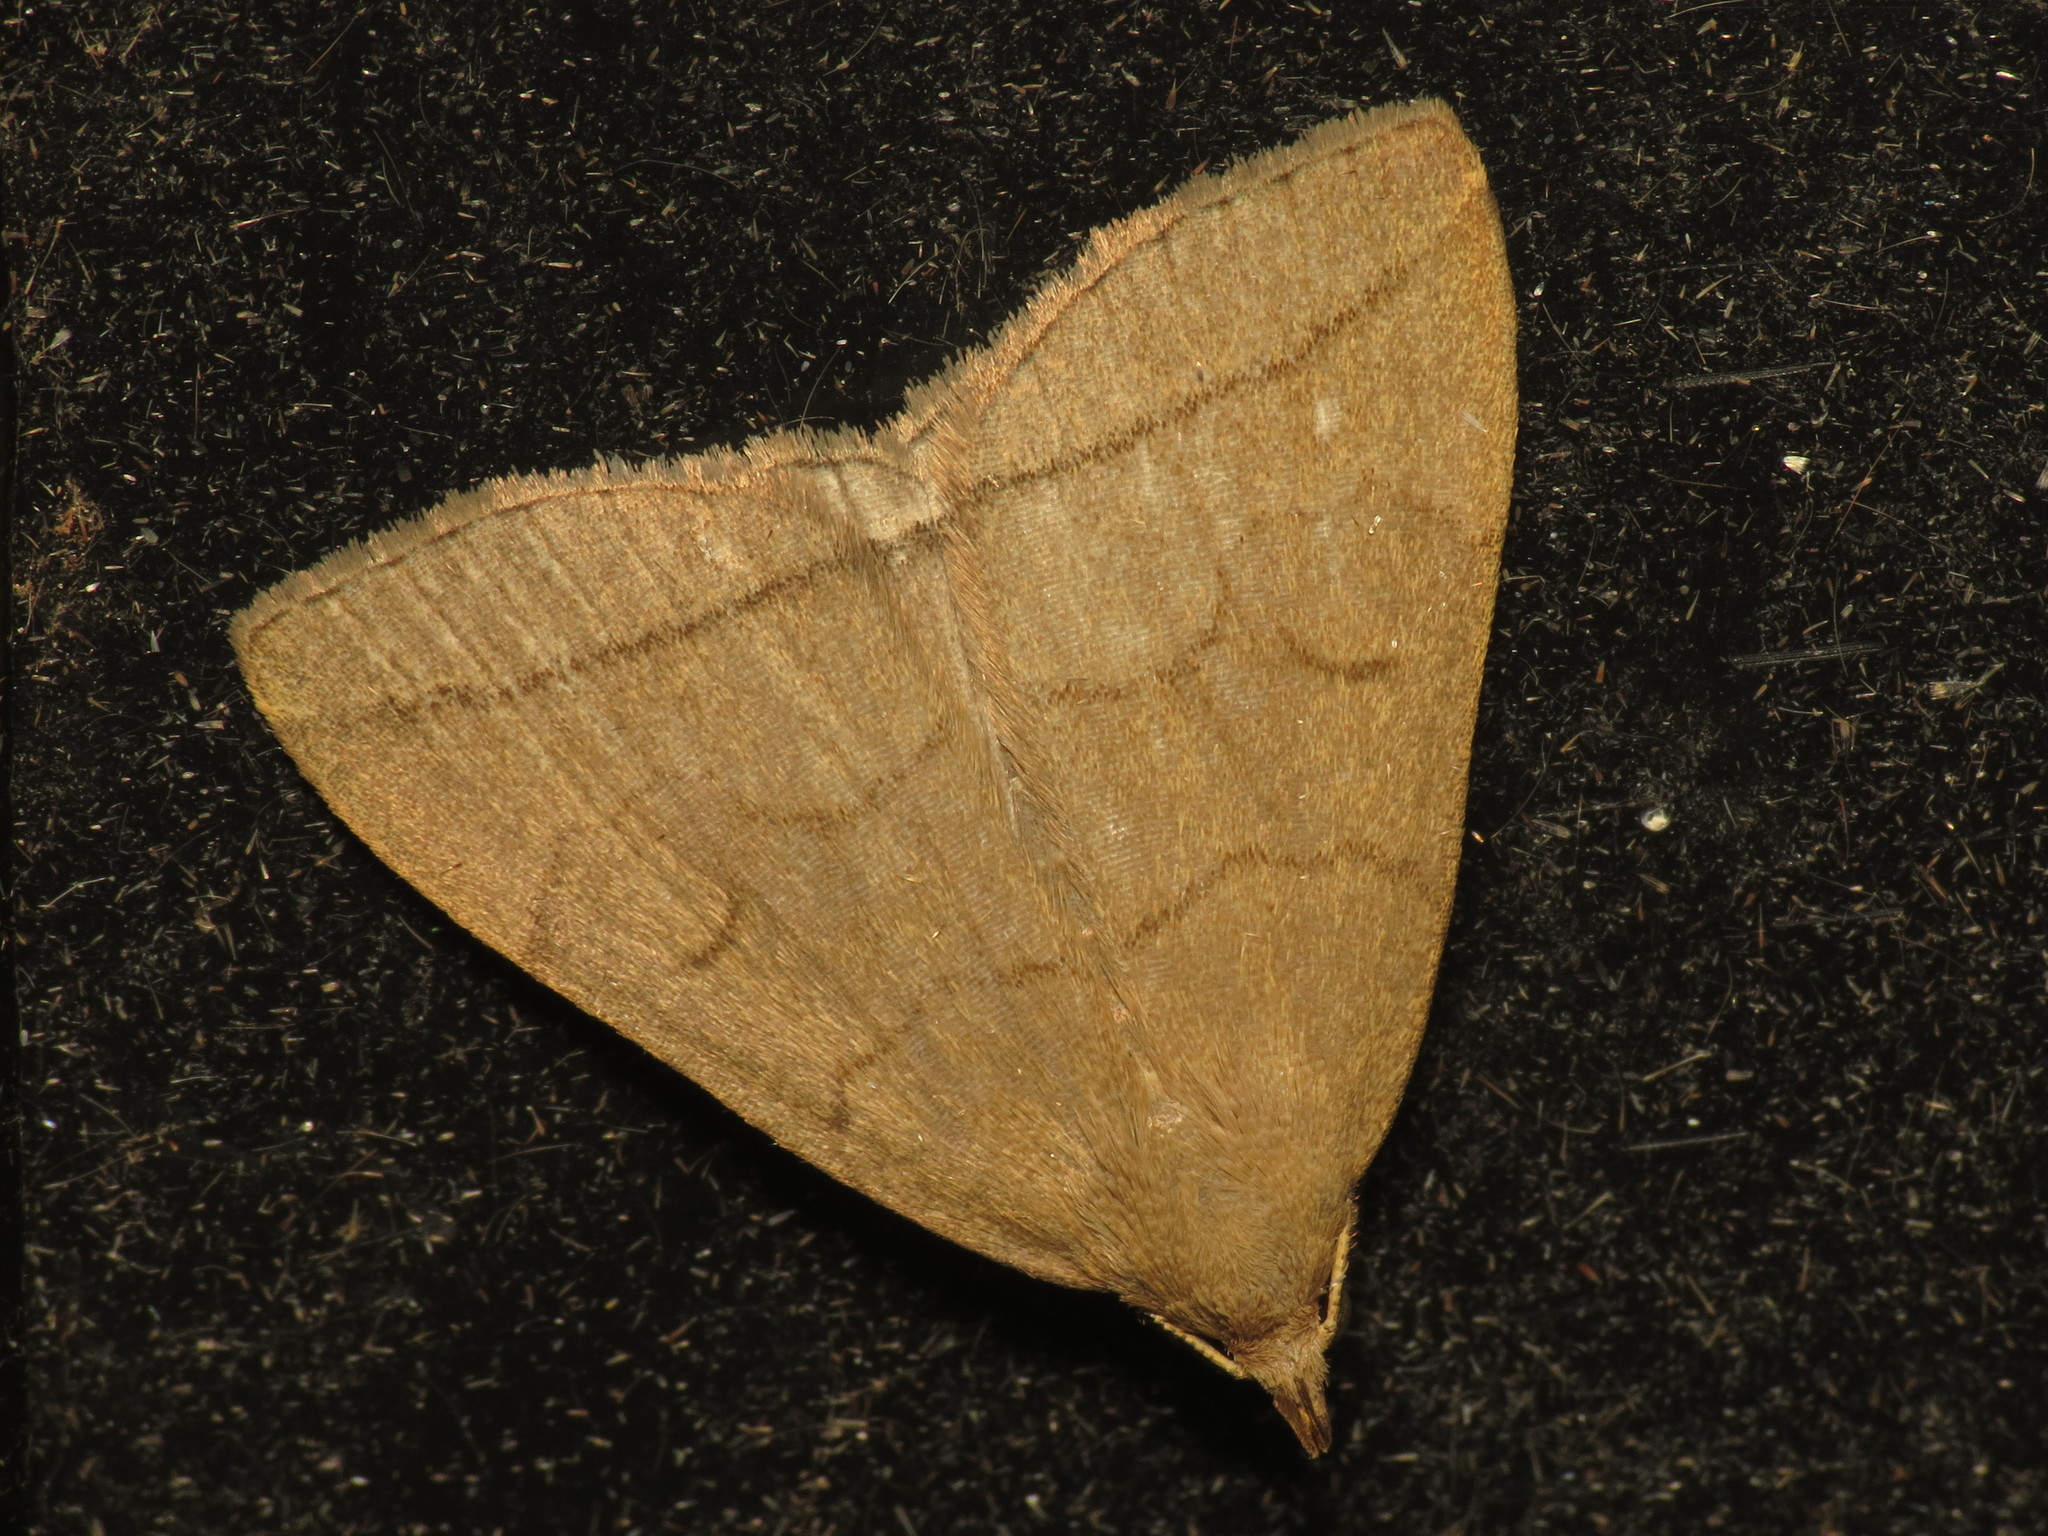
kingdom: Animalia
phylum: Arthropoda
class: Insecta
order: Lepidoptera
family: Erebidae
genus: Herminia
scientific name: Herminia tarsipennalis
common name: Fan-foot
